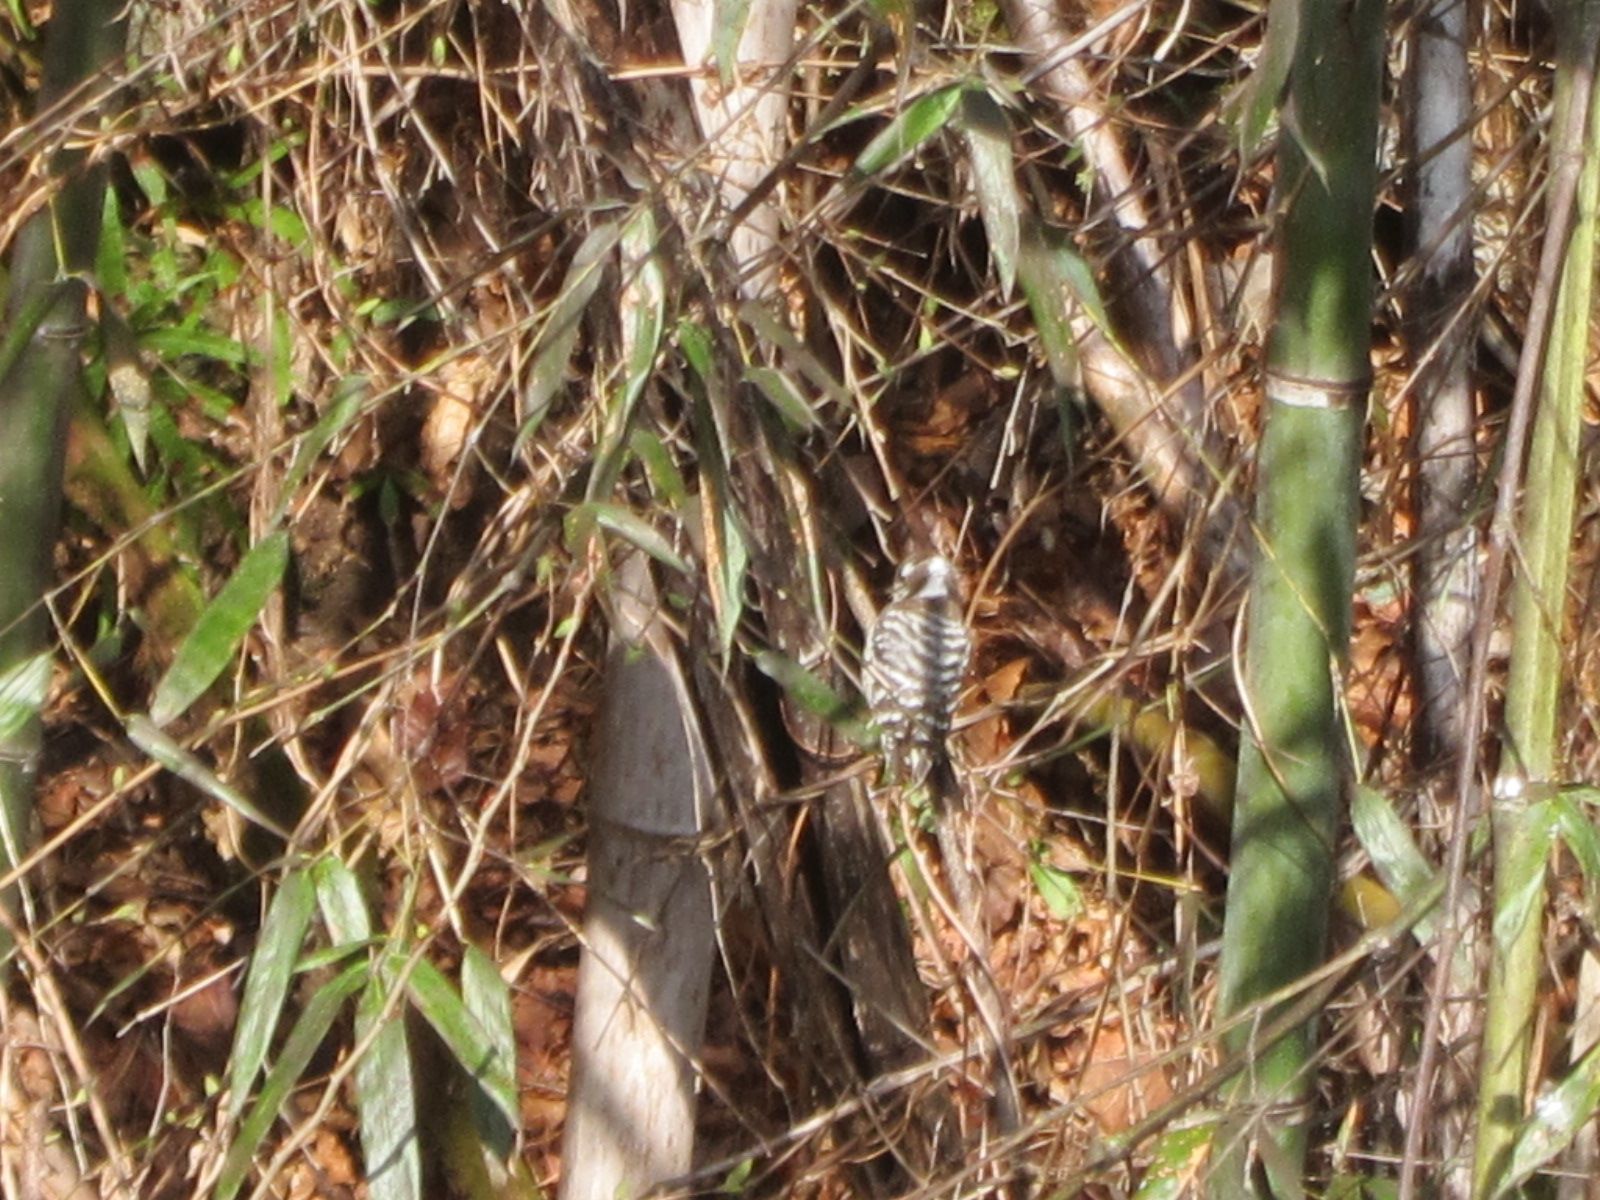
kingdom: Animalia
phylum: Chordata
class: Aves
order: Piciformes
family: Picidae
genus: Yungipicus
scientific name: Yungipicus kizuki
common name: Japanese pygmy woodpecker
